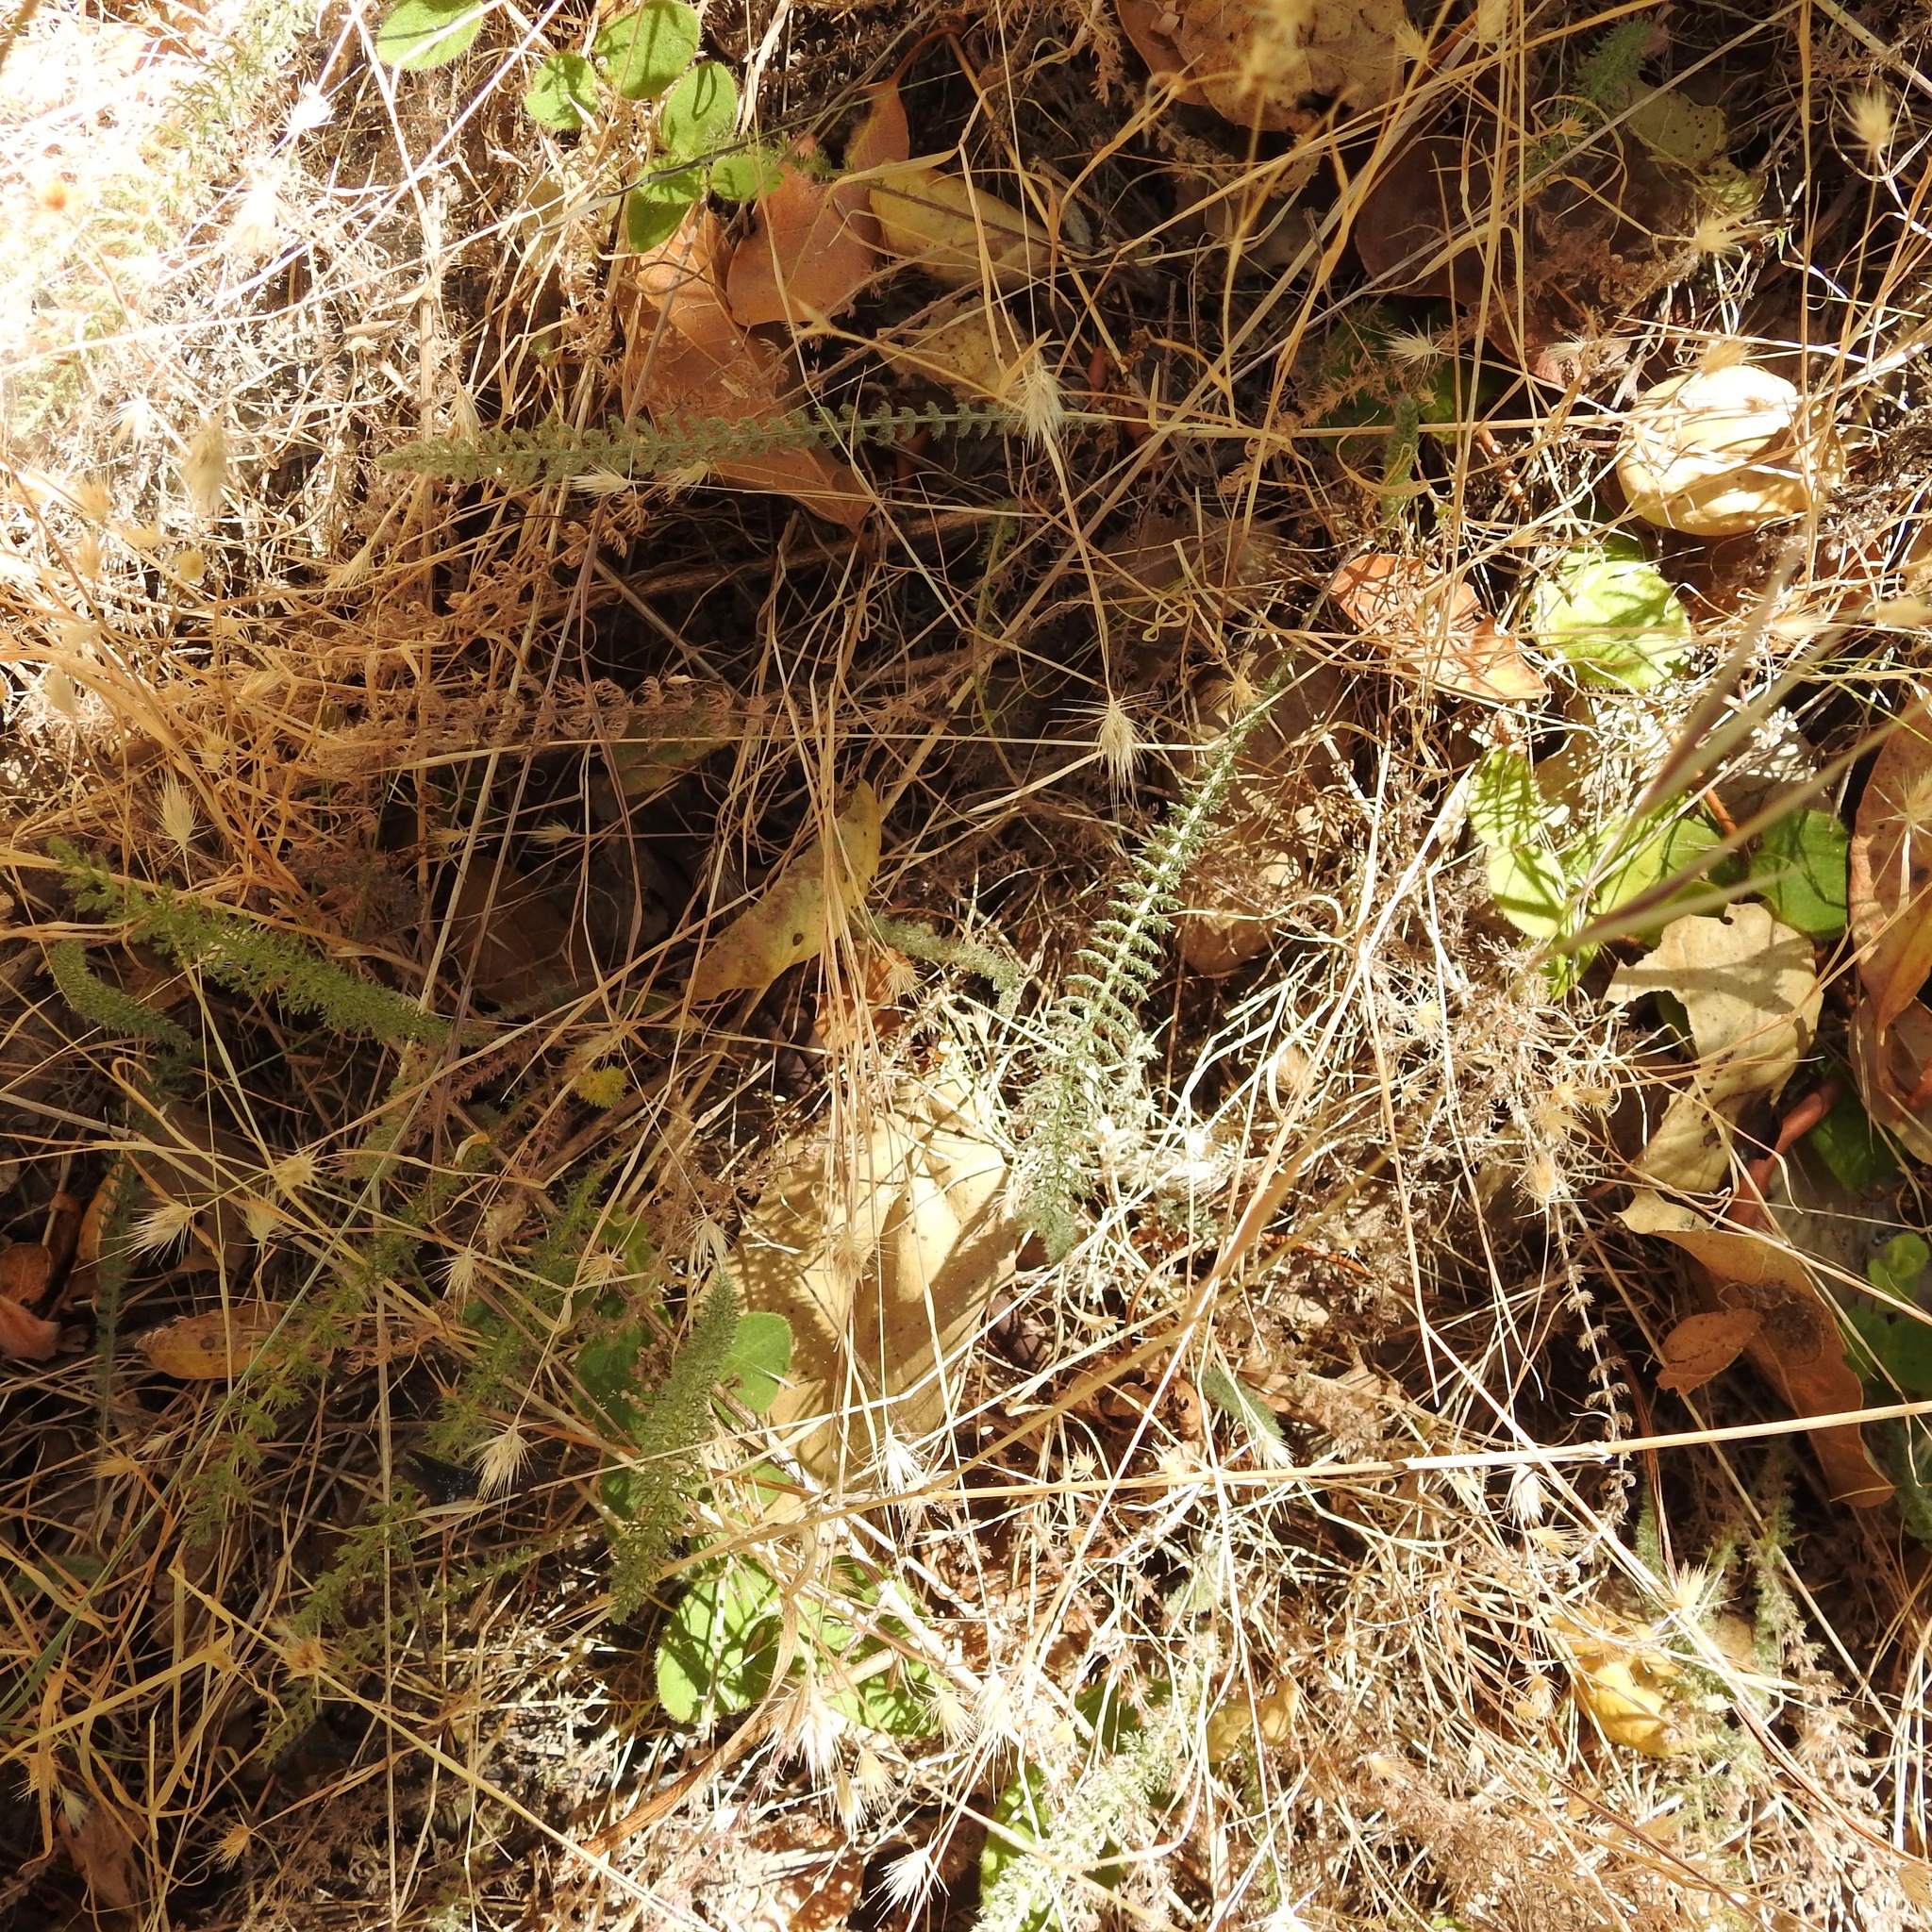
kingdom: Plantae
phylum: Tracheophyta
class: Magnoliopsida
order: Asterales
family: Asteraceae
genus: Achillea
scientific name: Achillea millefolium
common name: Yarrow
